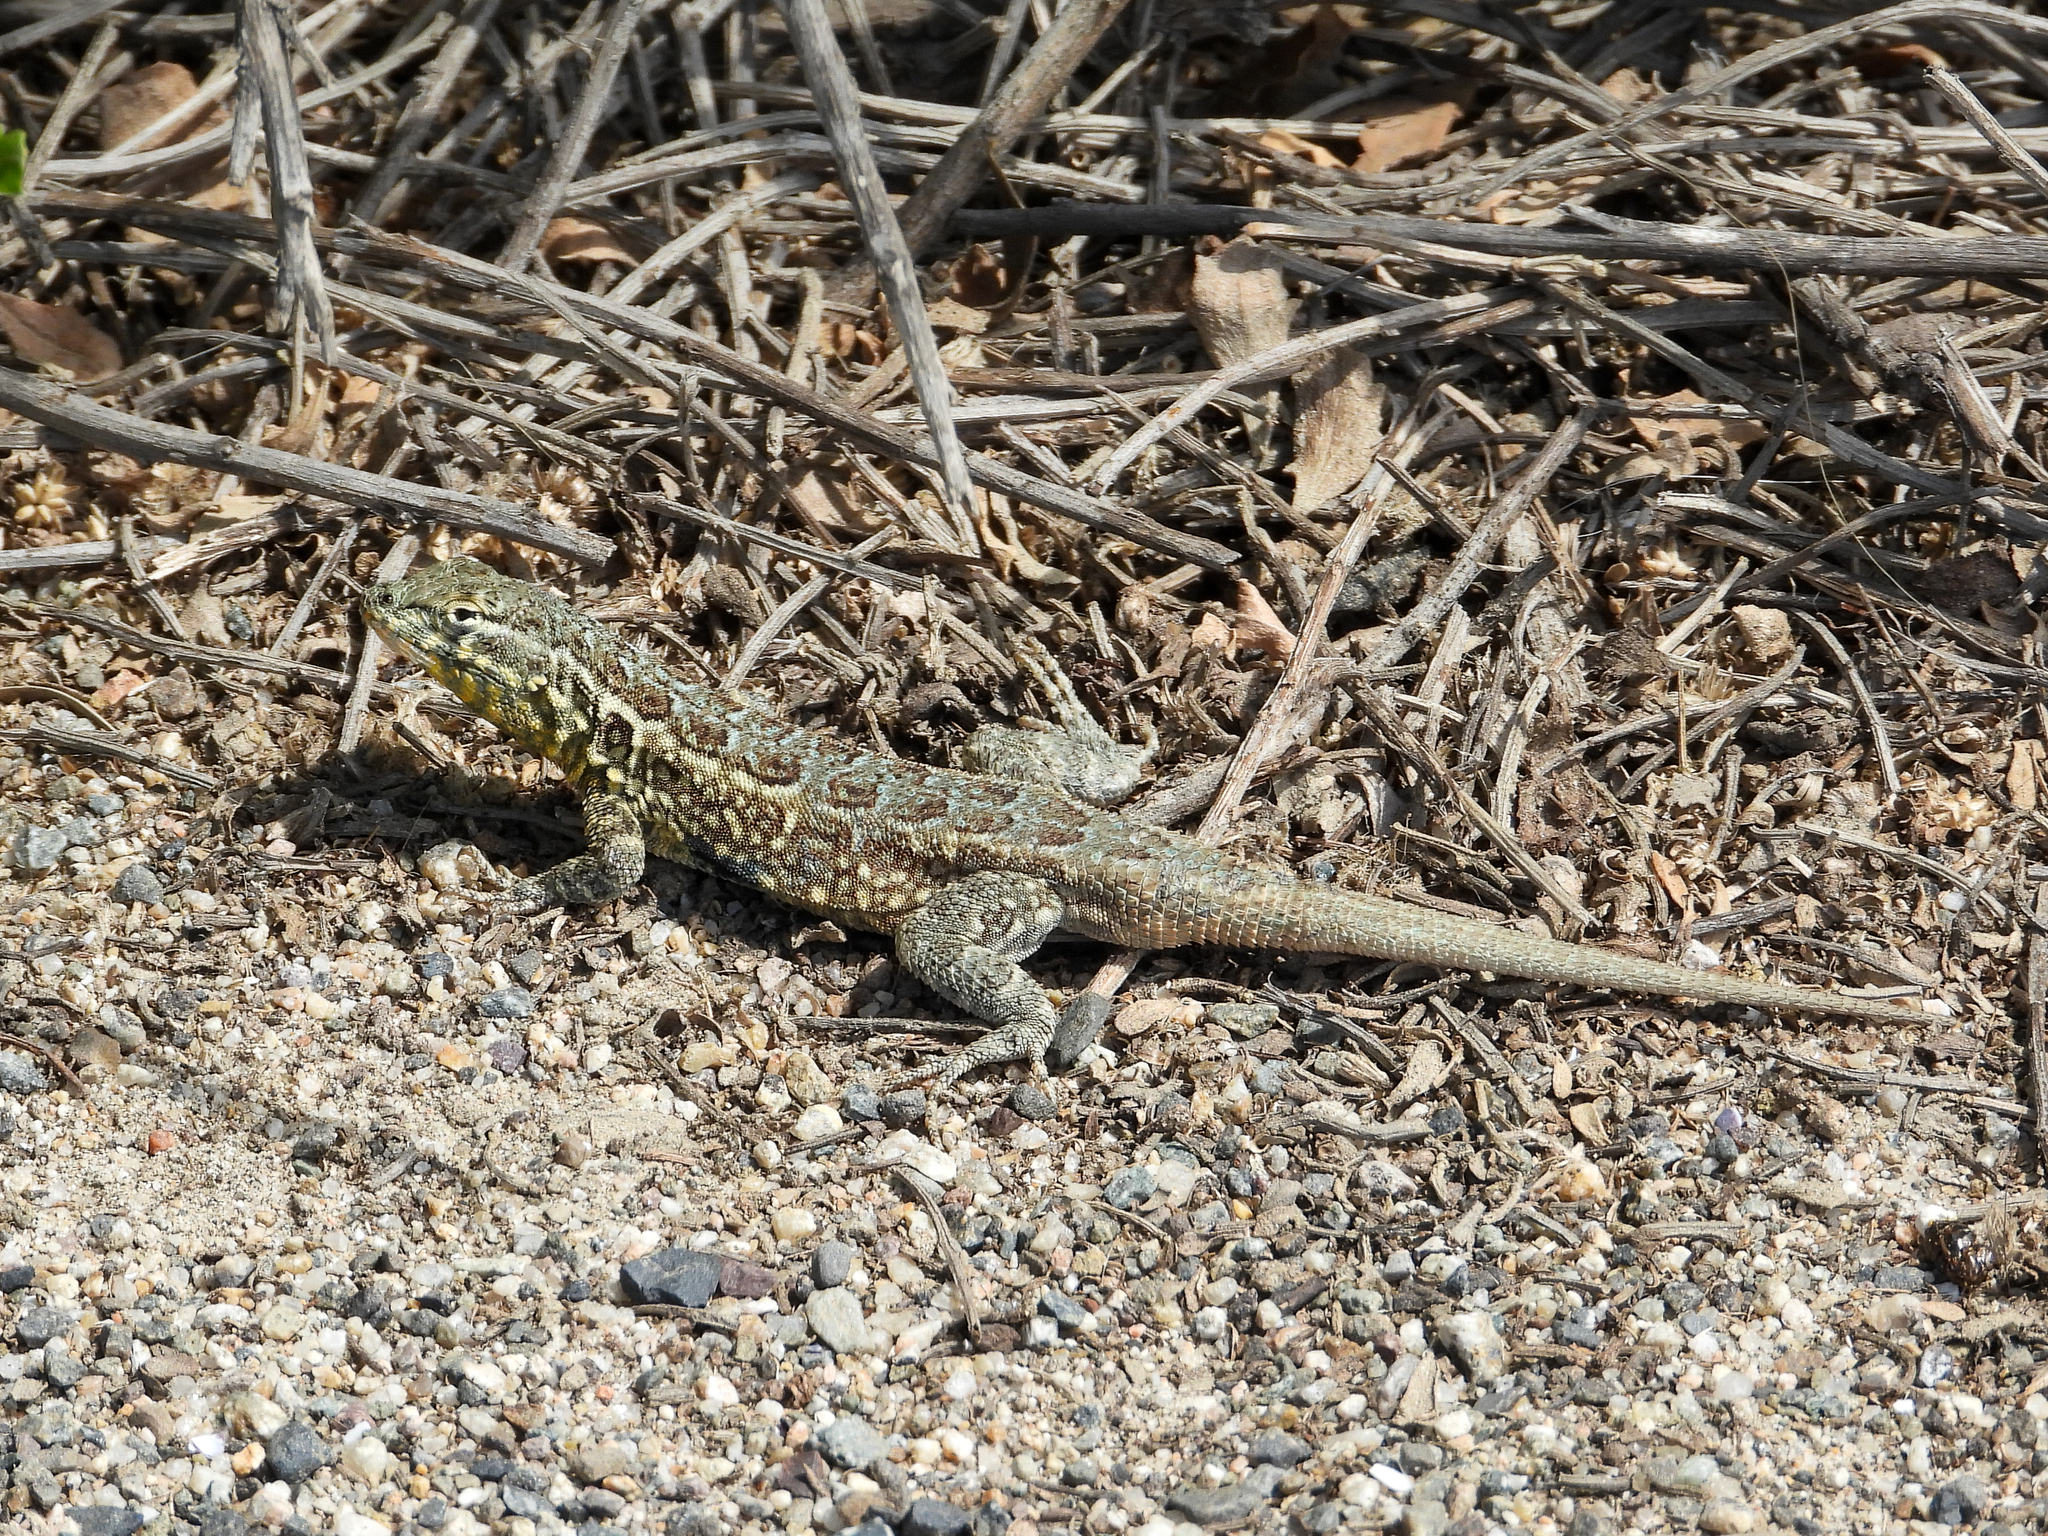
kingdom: Animalia
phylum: Chordata
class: Squamata
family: Phrynosomatidae
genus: Uta
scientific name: Uta stansburiana
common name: Side-blotched lizard
